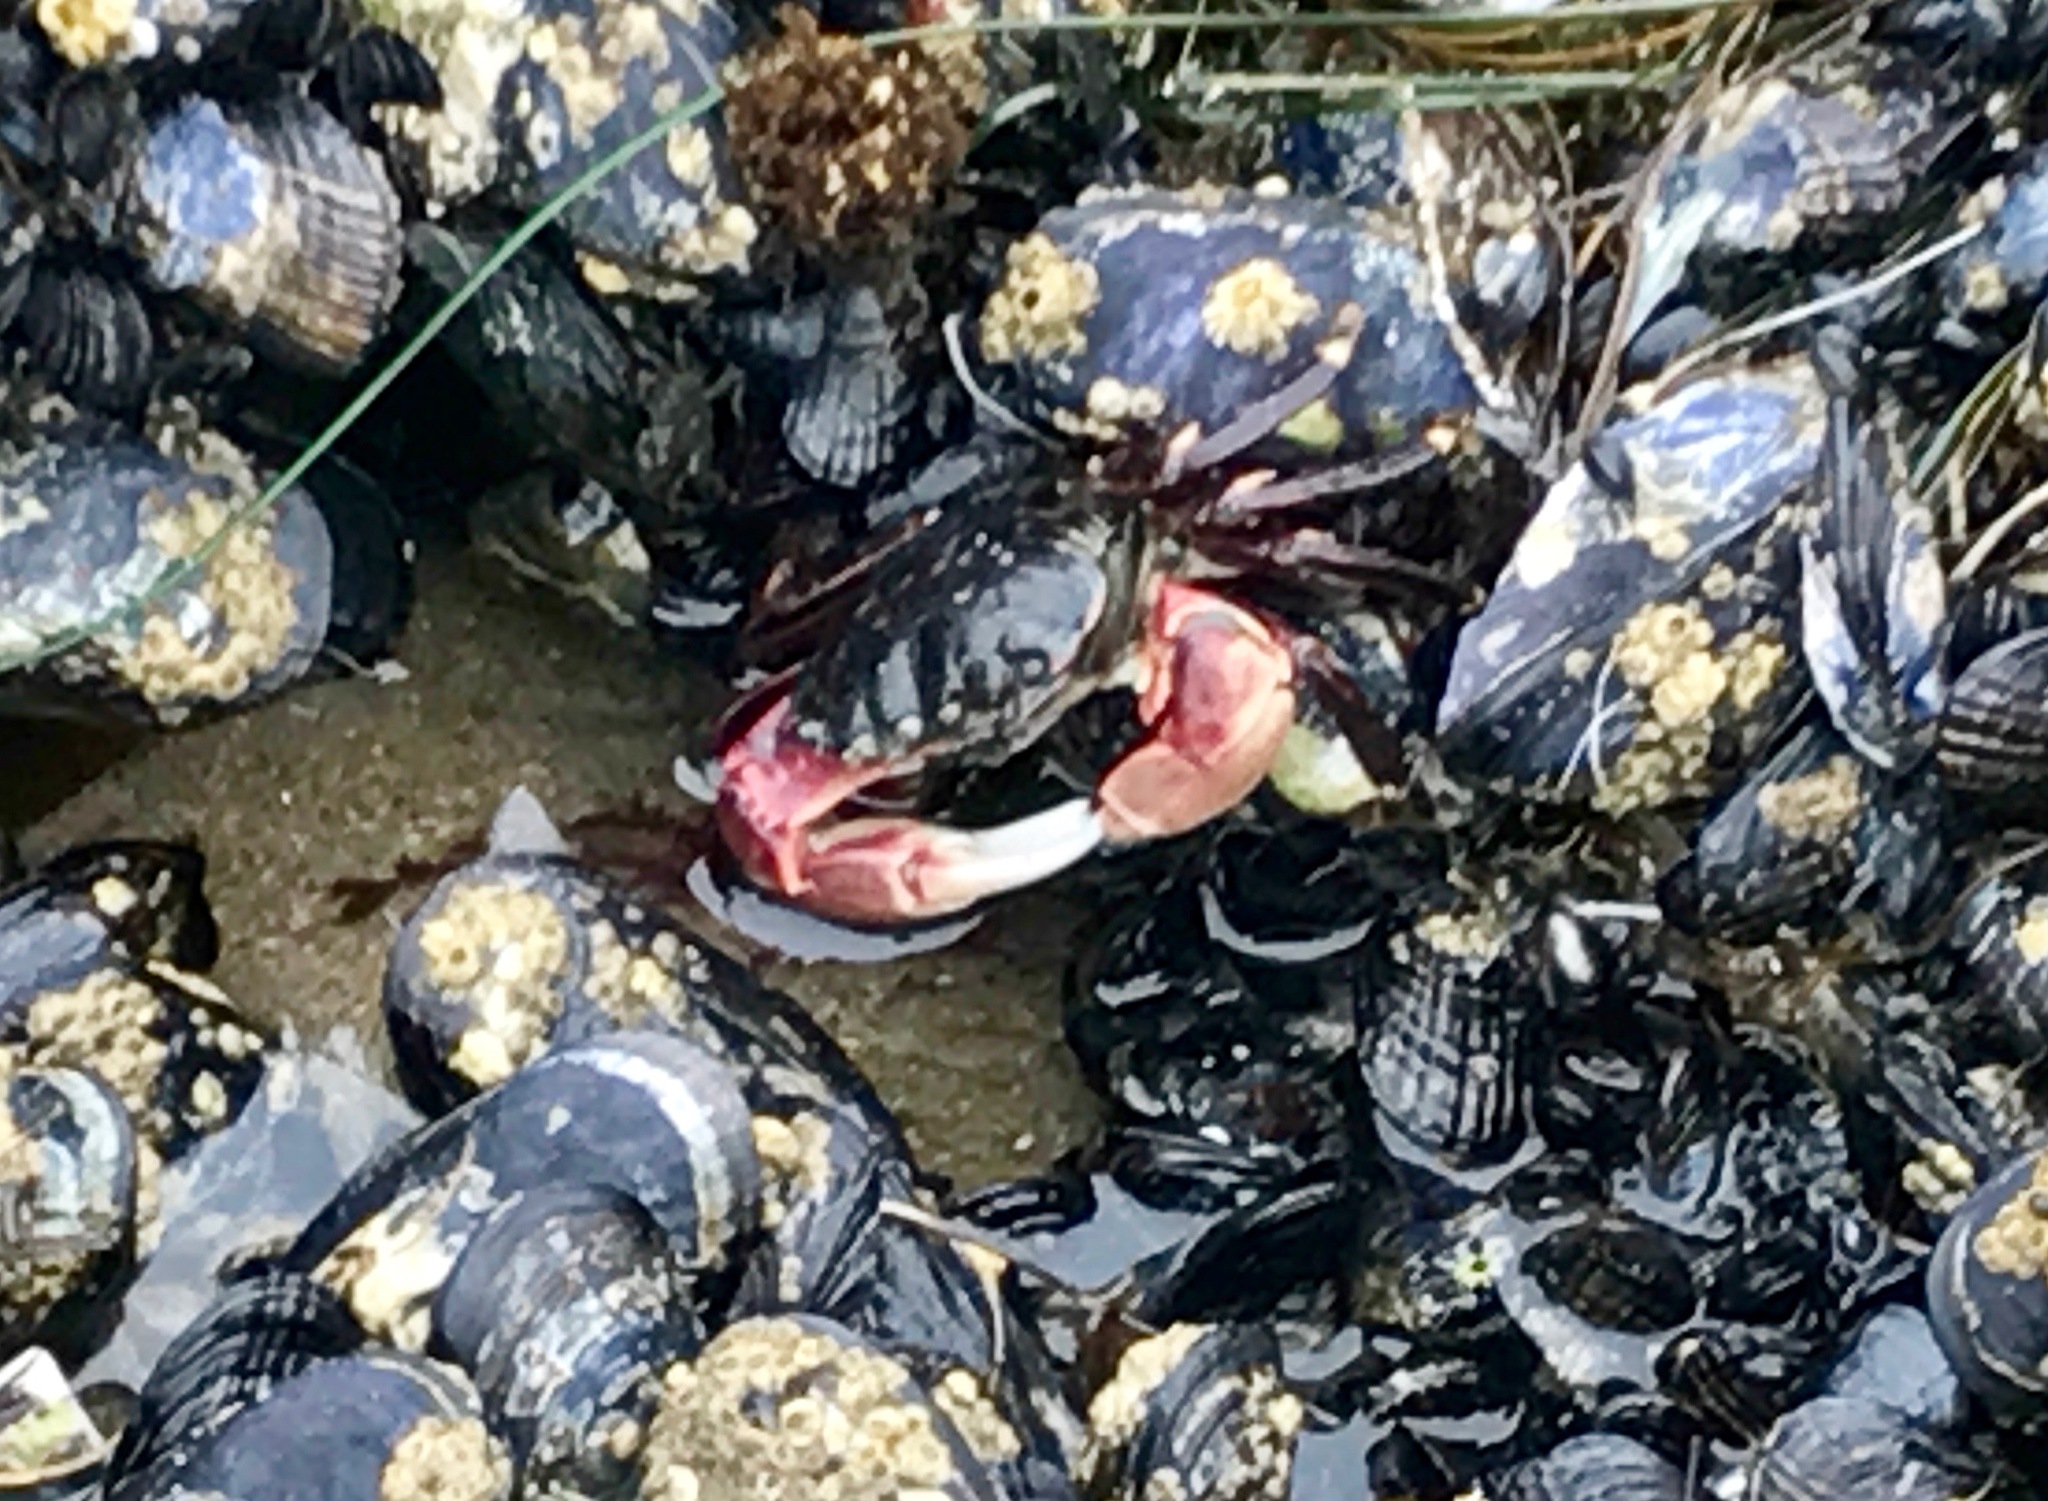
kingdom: Animalia
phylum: Arthropoda
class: Malacostraca
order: Decapoda
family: Grapsidae
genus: Pachygrapsus
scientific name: Pachygrapsus crassipes
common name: Striped shore crab
